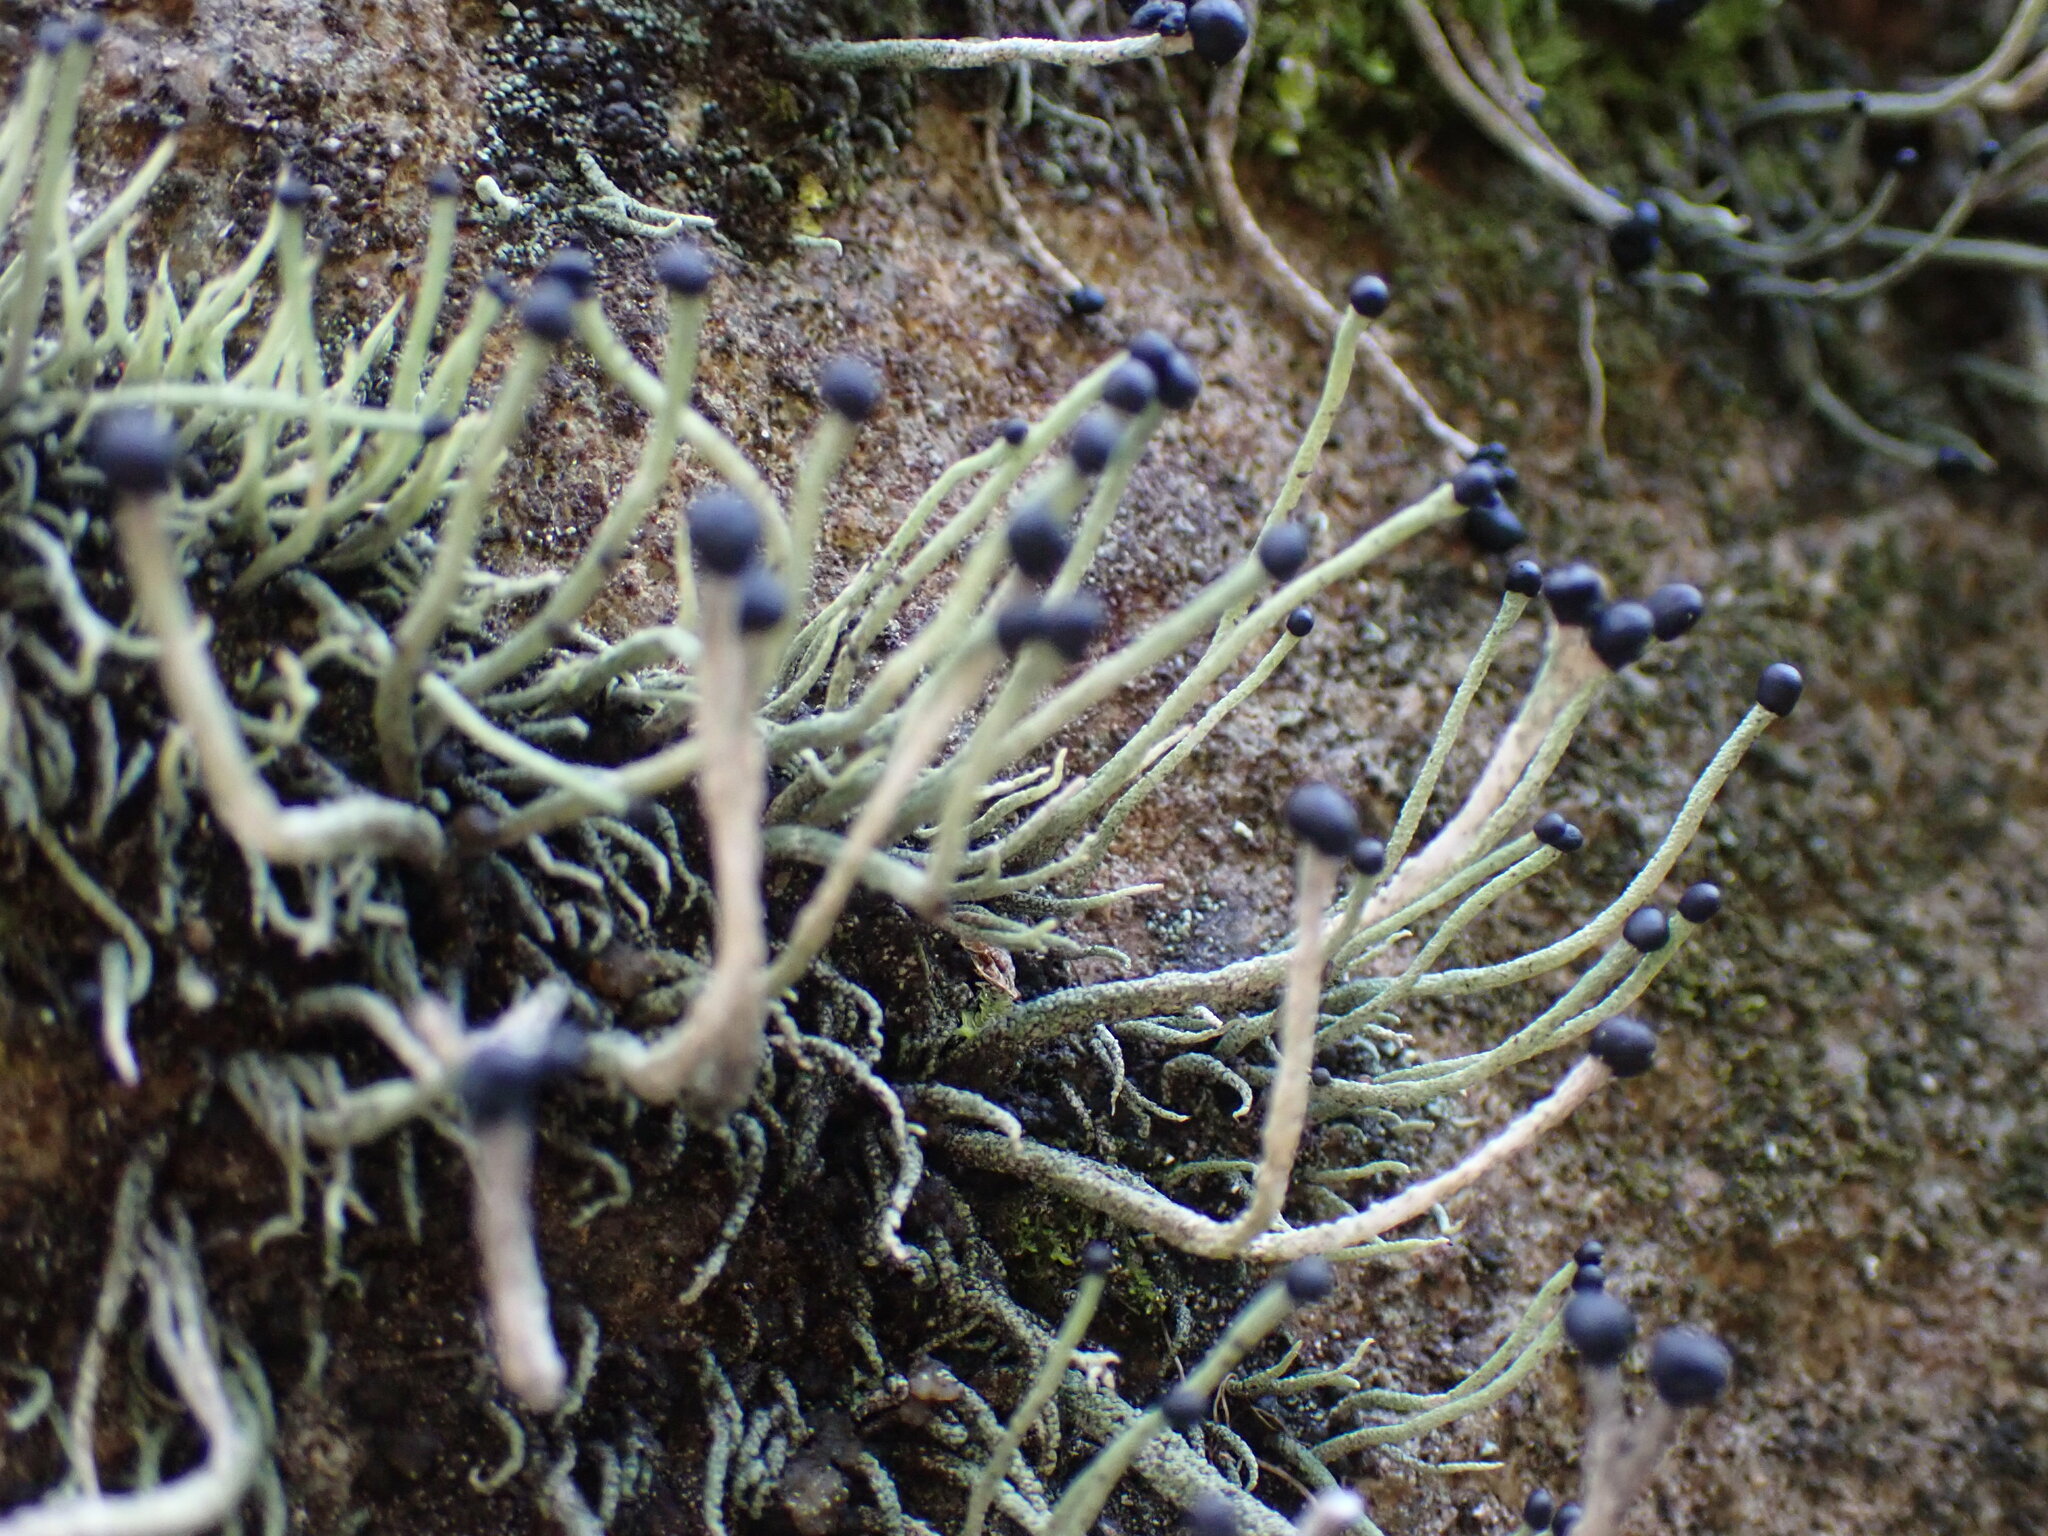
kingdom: Fungi
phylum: Ascomycota
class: Lecanoromycetes
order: Lecanorales
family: Cladoniaceae
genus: Pilophorus
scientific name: Pilophorus acicularis
